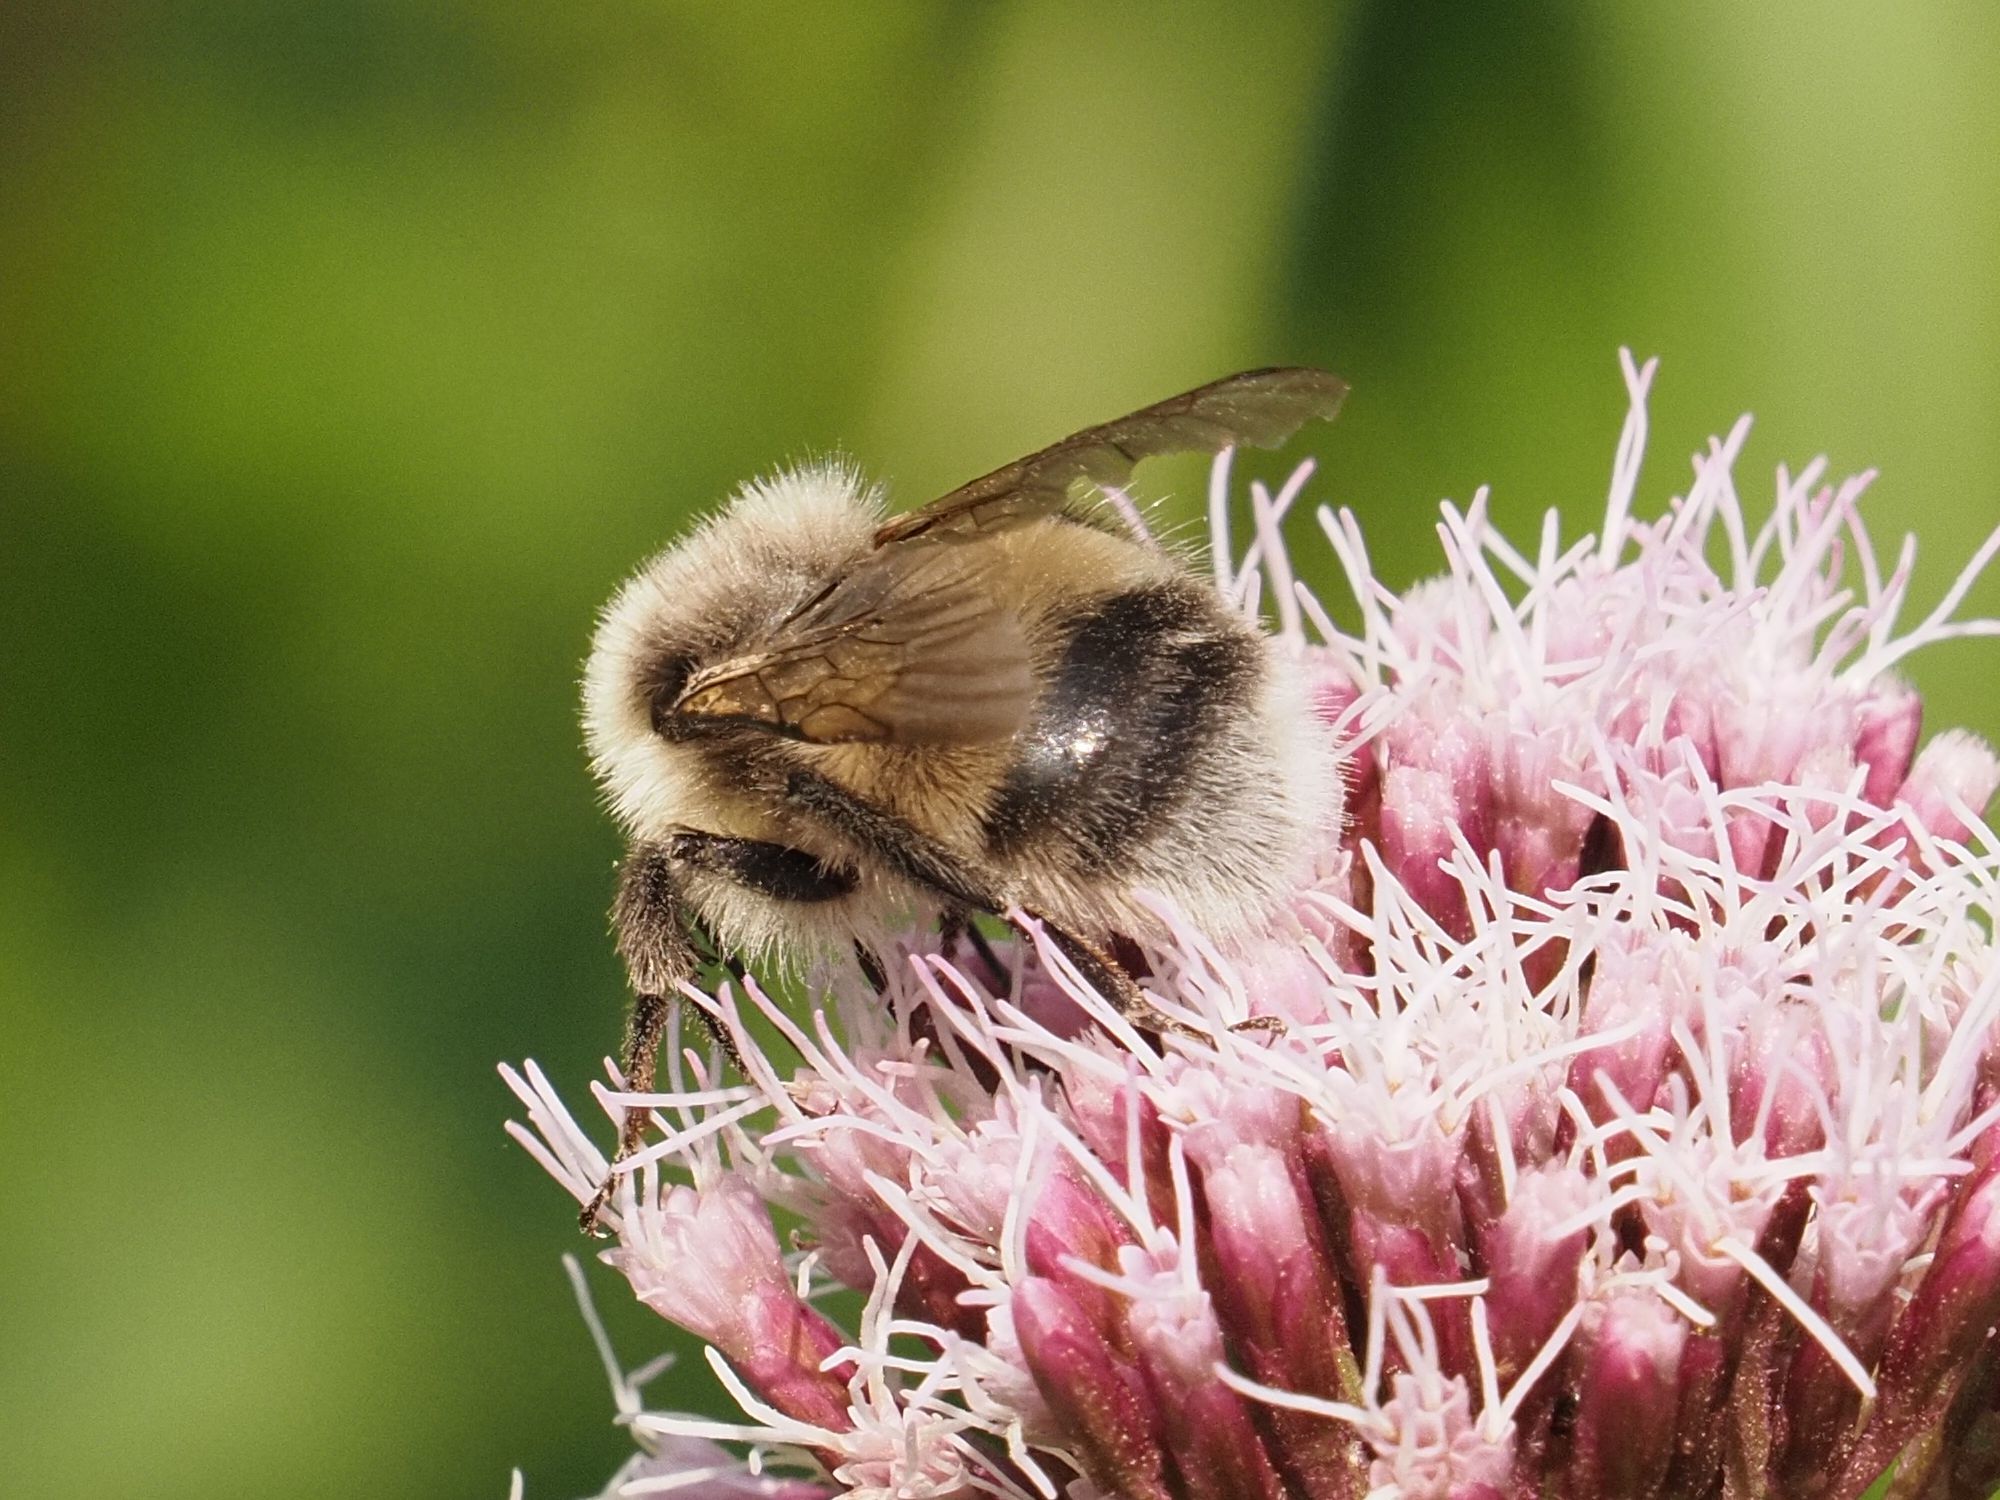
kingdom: Animalia
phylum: Arthropoda
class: Insecta
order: Hymenoptera
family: Apidae
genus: Bombus
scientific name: Bombus lucorum
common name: White-tailed bumblebee
